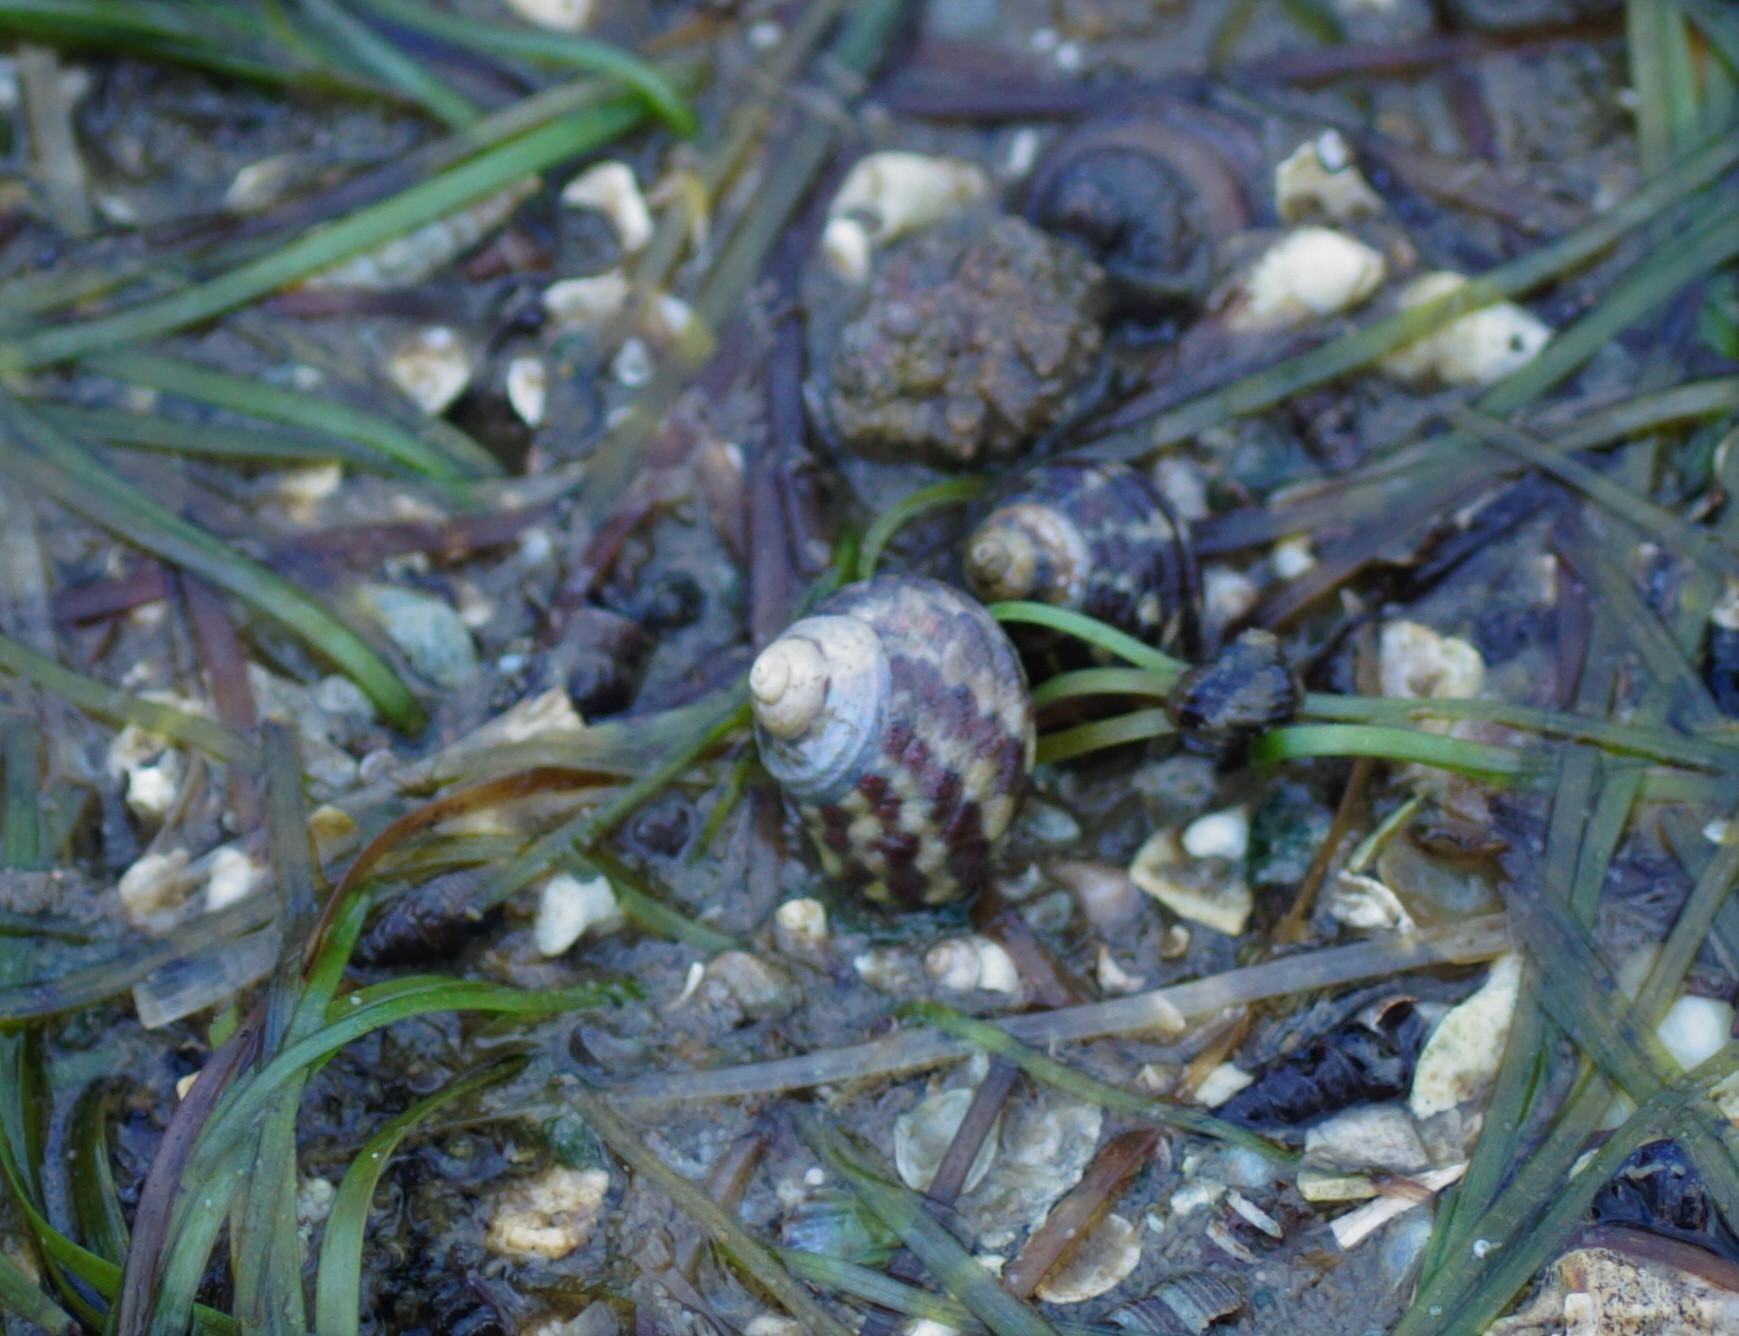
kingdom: Animalia
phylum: Mollusca
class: Gastropoda
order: Trochida
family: Trochidae
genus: Austrocochlea
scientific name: Austrocochlea porcata
